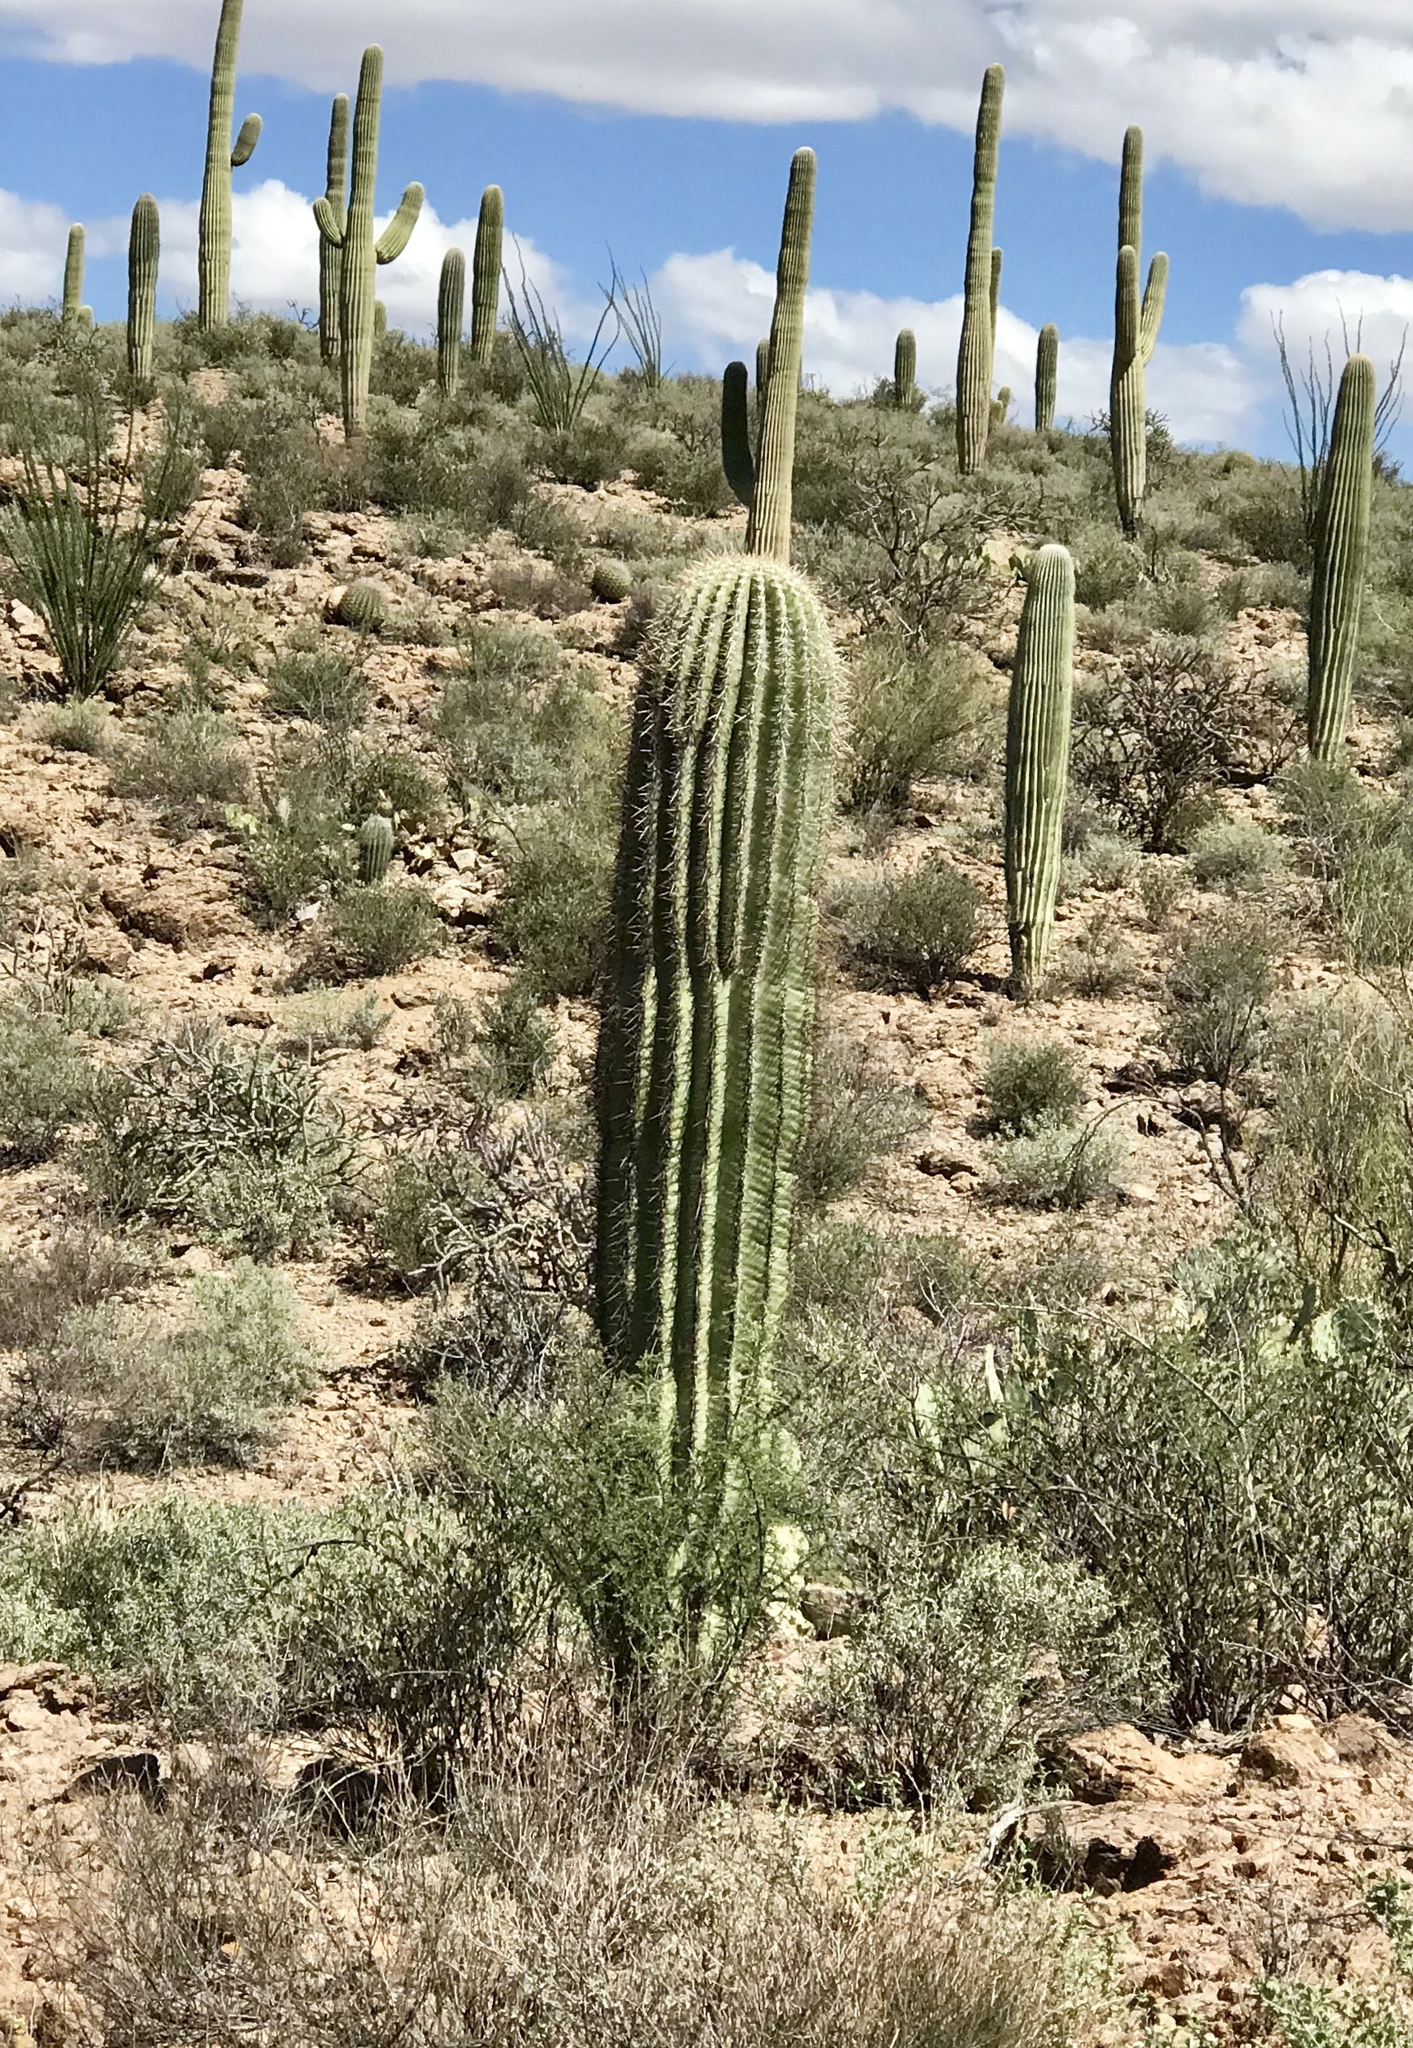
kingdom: Plantae
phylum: Tracheophyta
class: Magnoliopsida
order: Caryophyllales
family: Cactaceae
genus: Carnegiea
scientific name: Carnegiea gigantea
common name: Saguaro
